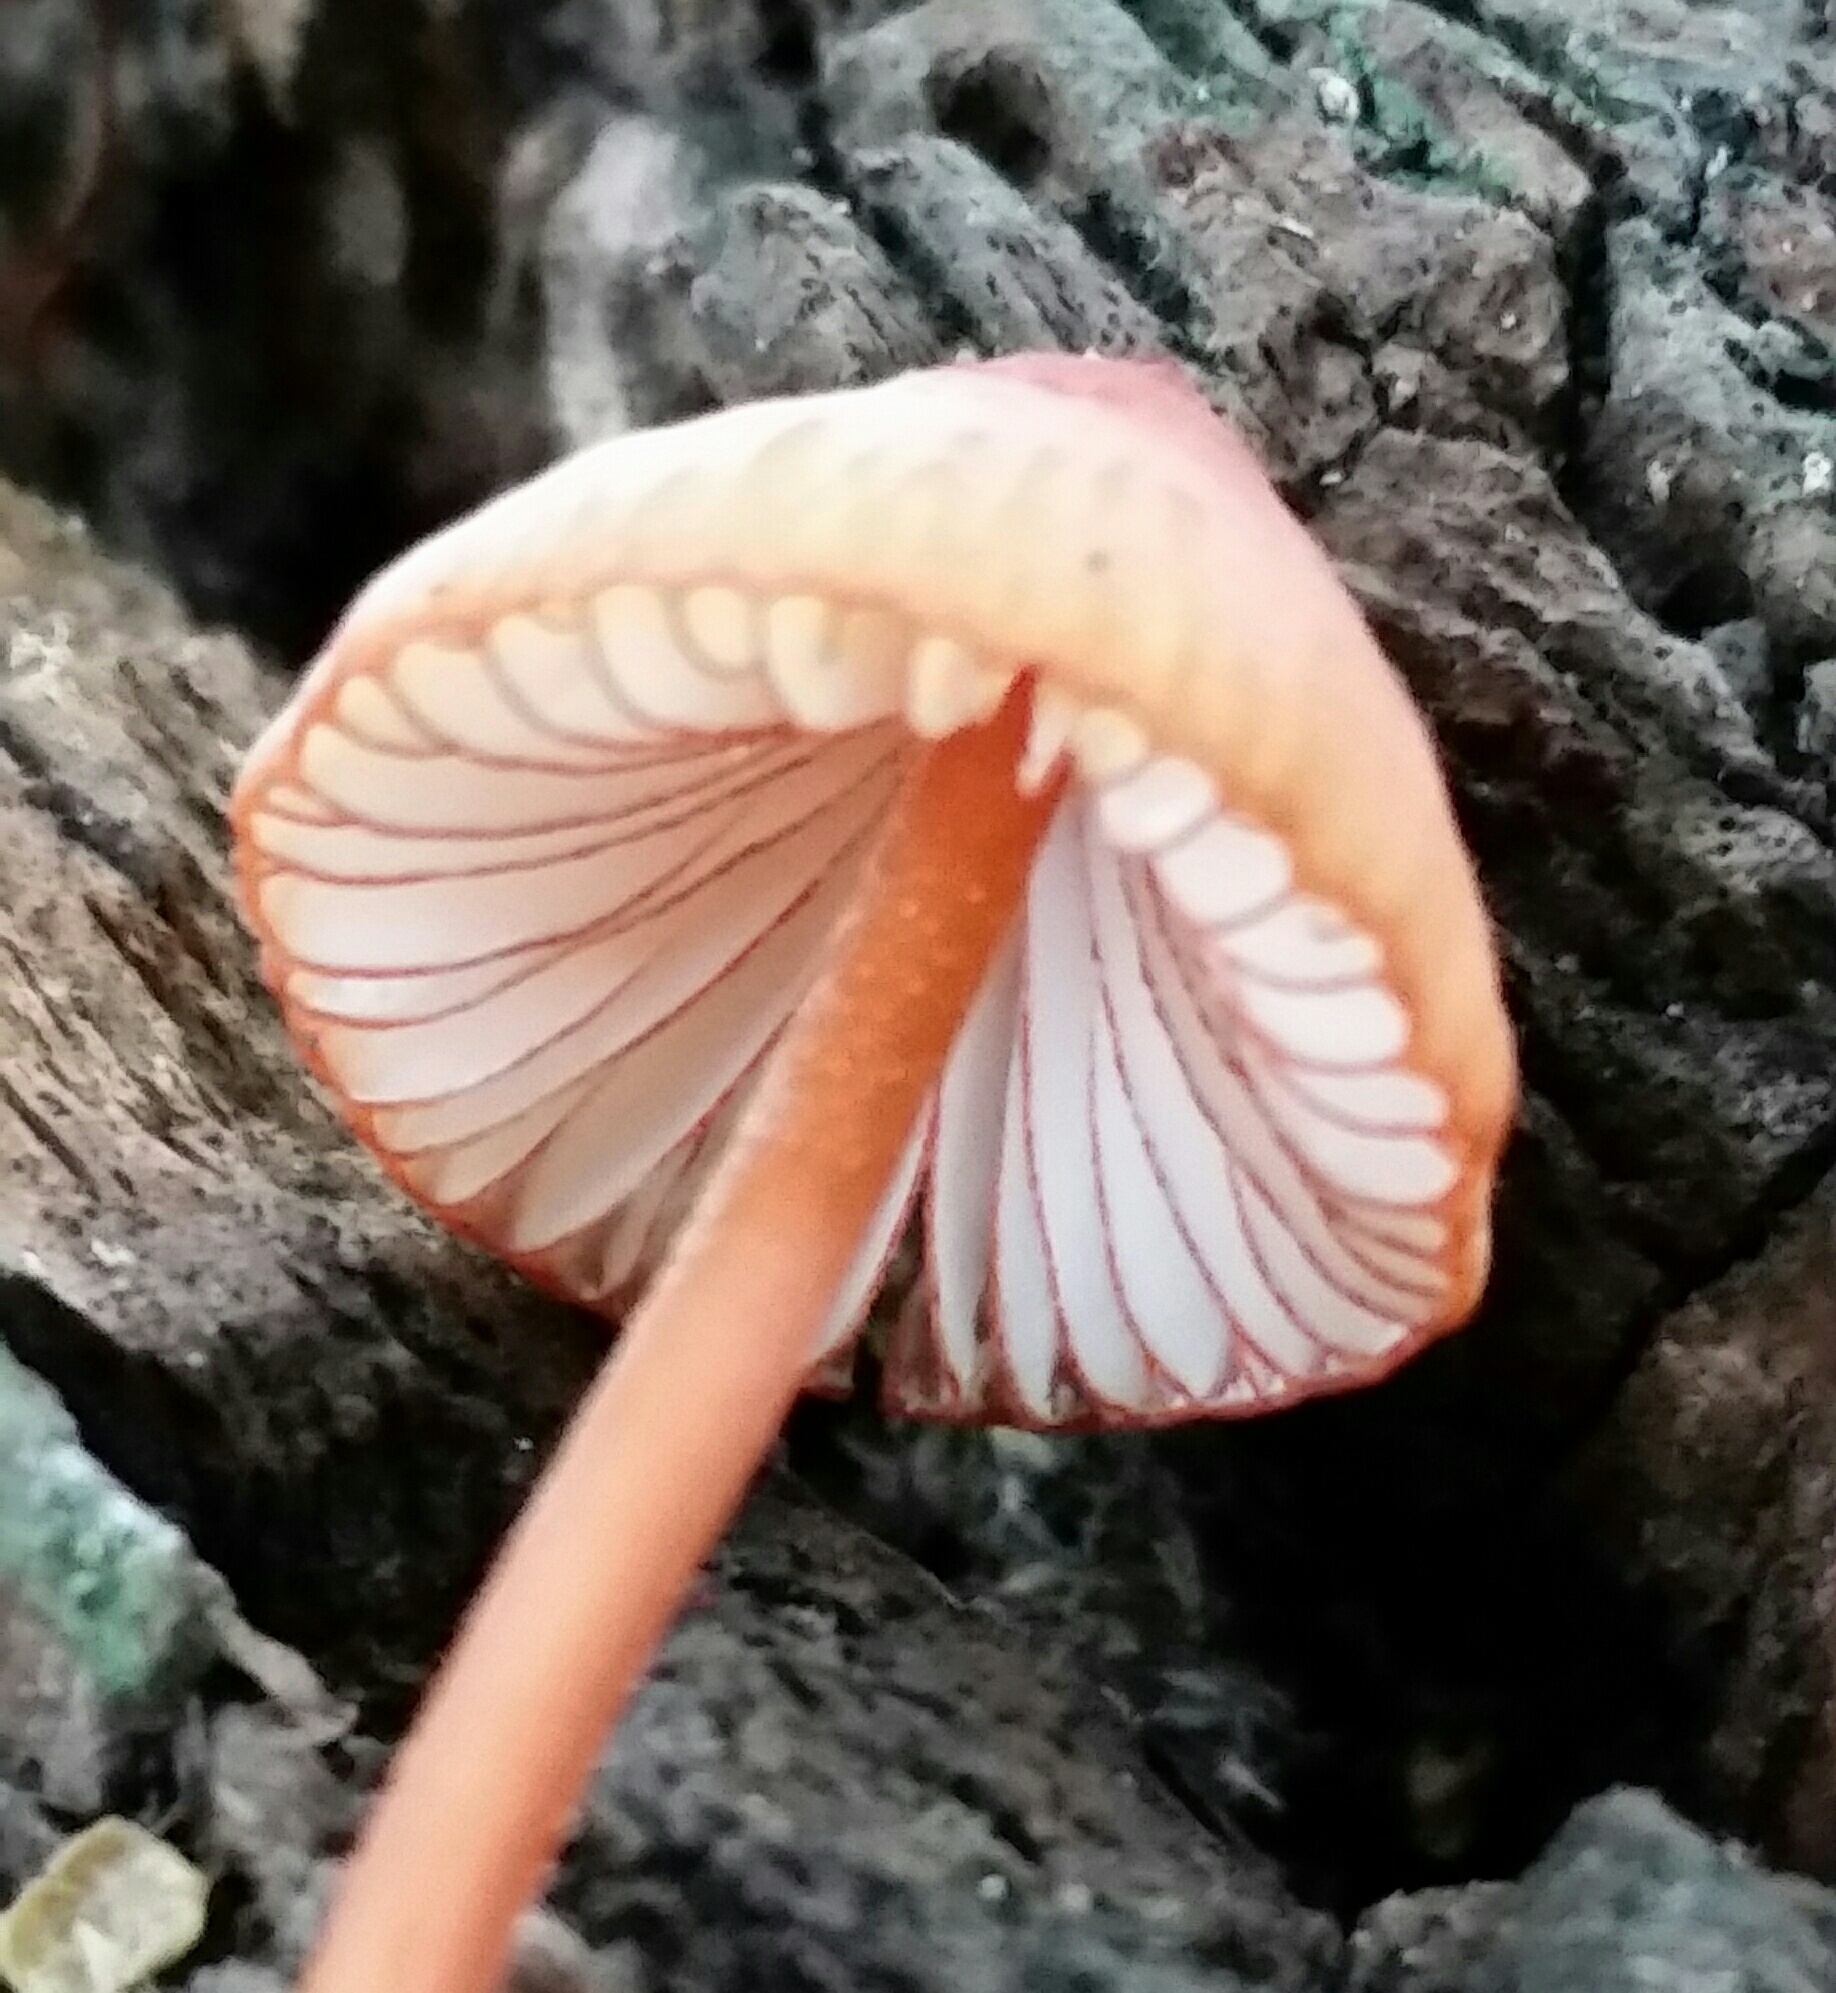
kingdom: Fungi
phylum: Basidiomycota
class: Agaricomycetes
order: Agaricales
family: Mycenaceae
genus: Mycena
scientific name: Mycena
